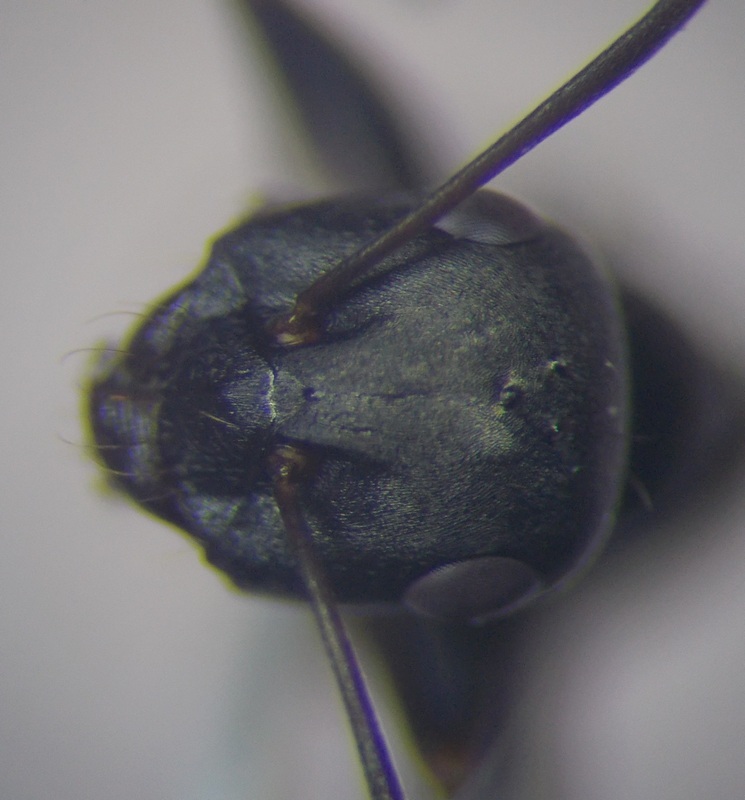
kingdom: Animalia
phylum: Arthropoda
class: Insecta
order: Hymenoptera
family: Formicidae
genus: Cataglyphis
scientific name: Cataglyphis aenescens
